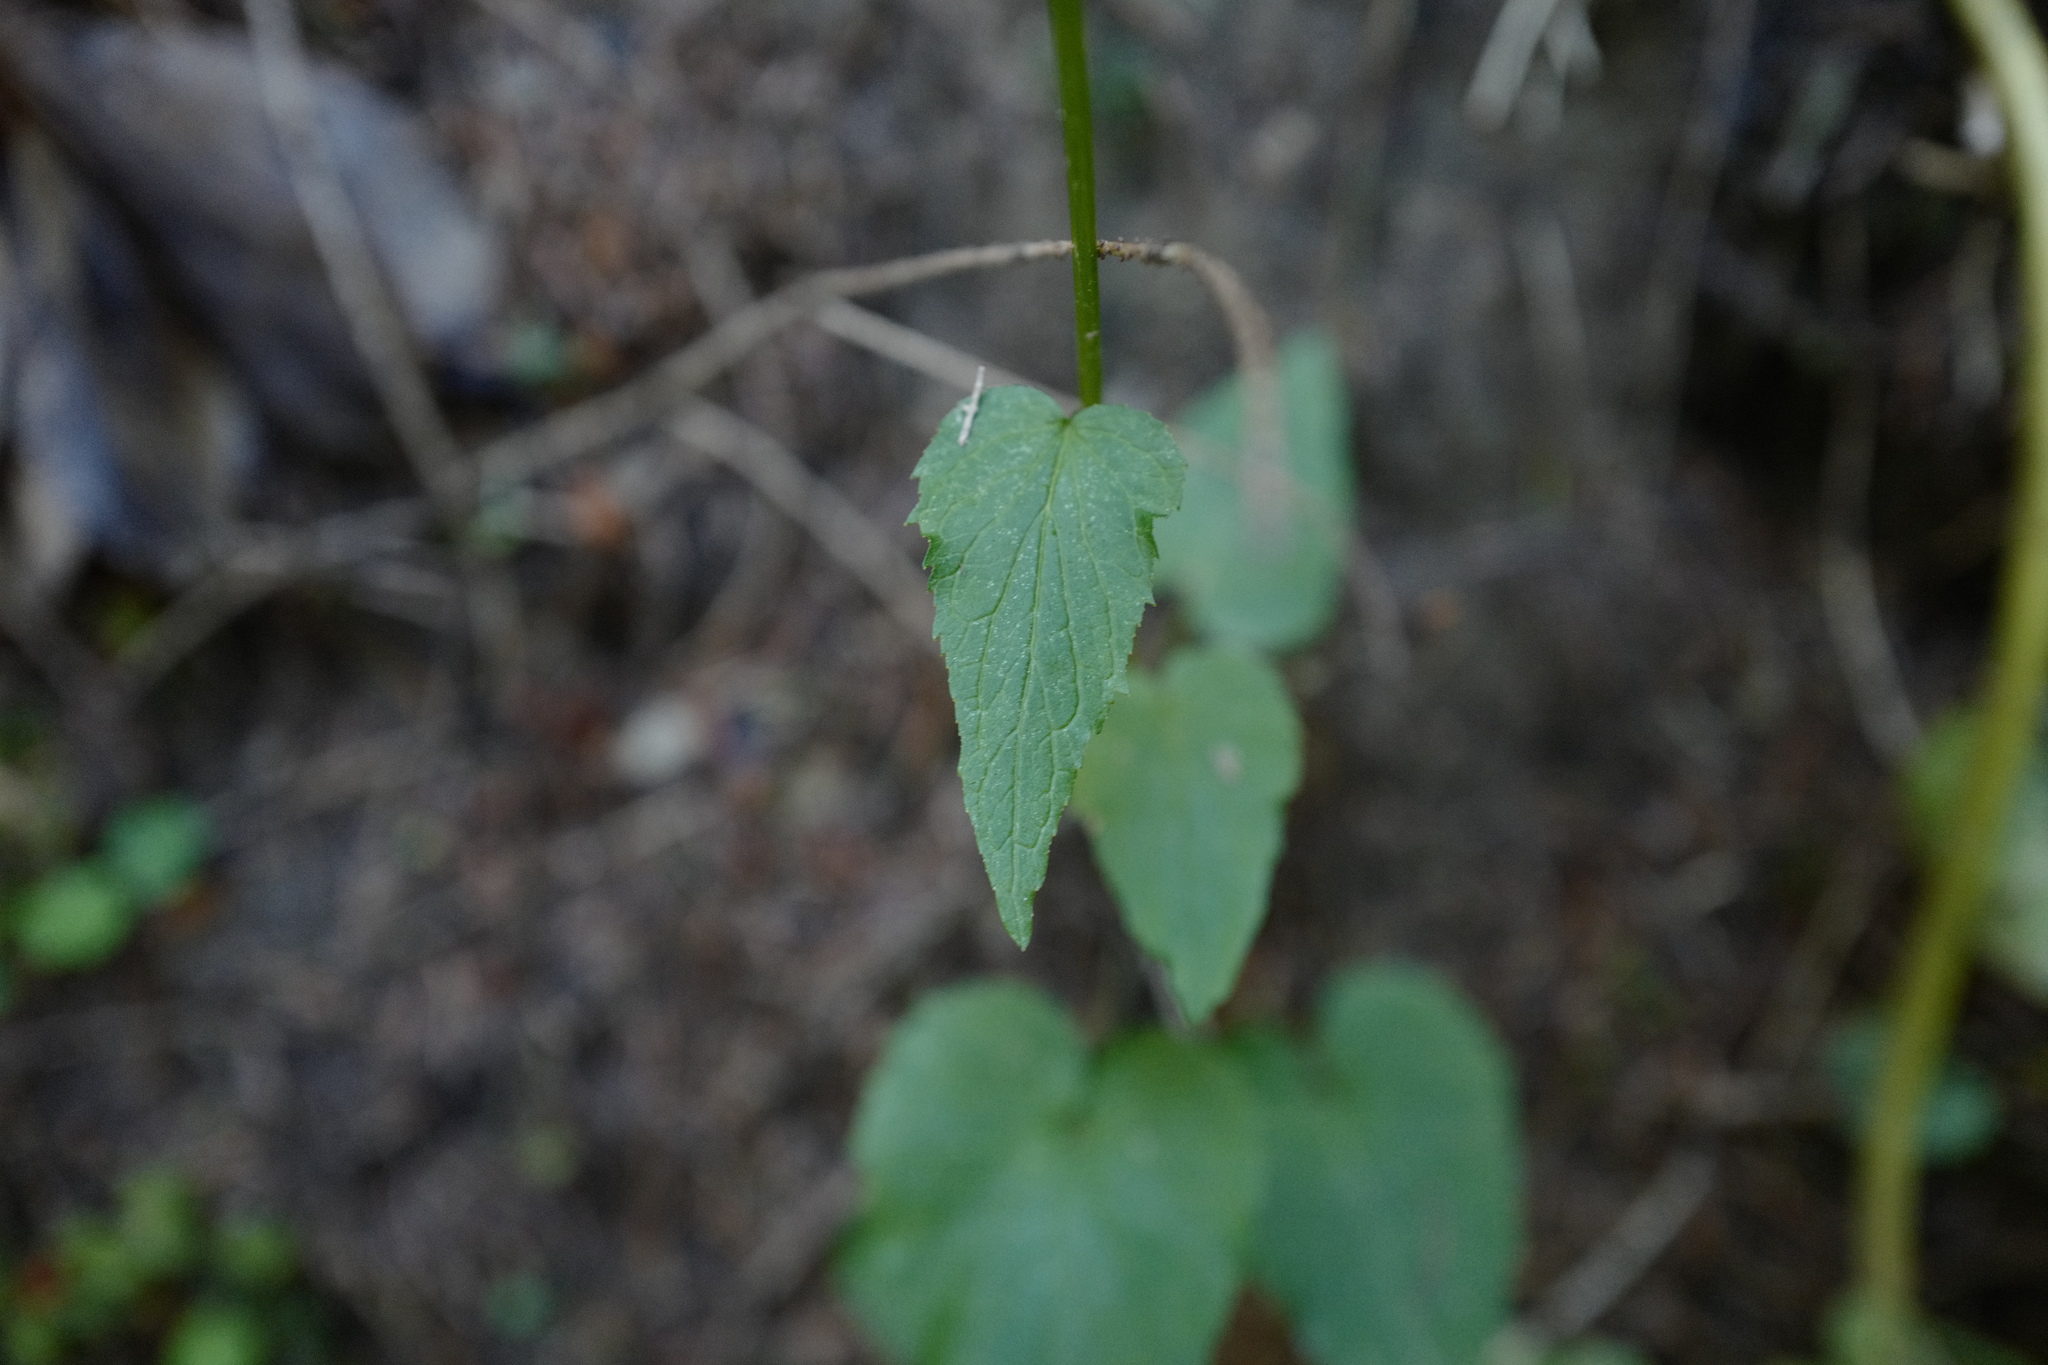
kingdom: Plantae
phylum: Tracheophyta
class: Magnoliopsida
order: Asterales
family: Campanulaceae
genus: Phyteuma
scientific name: Phyteuma spicatum
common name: Spiked rampion
